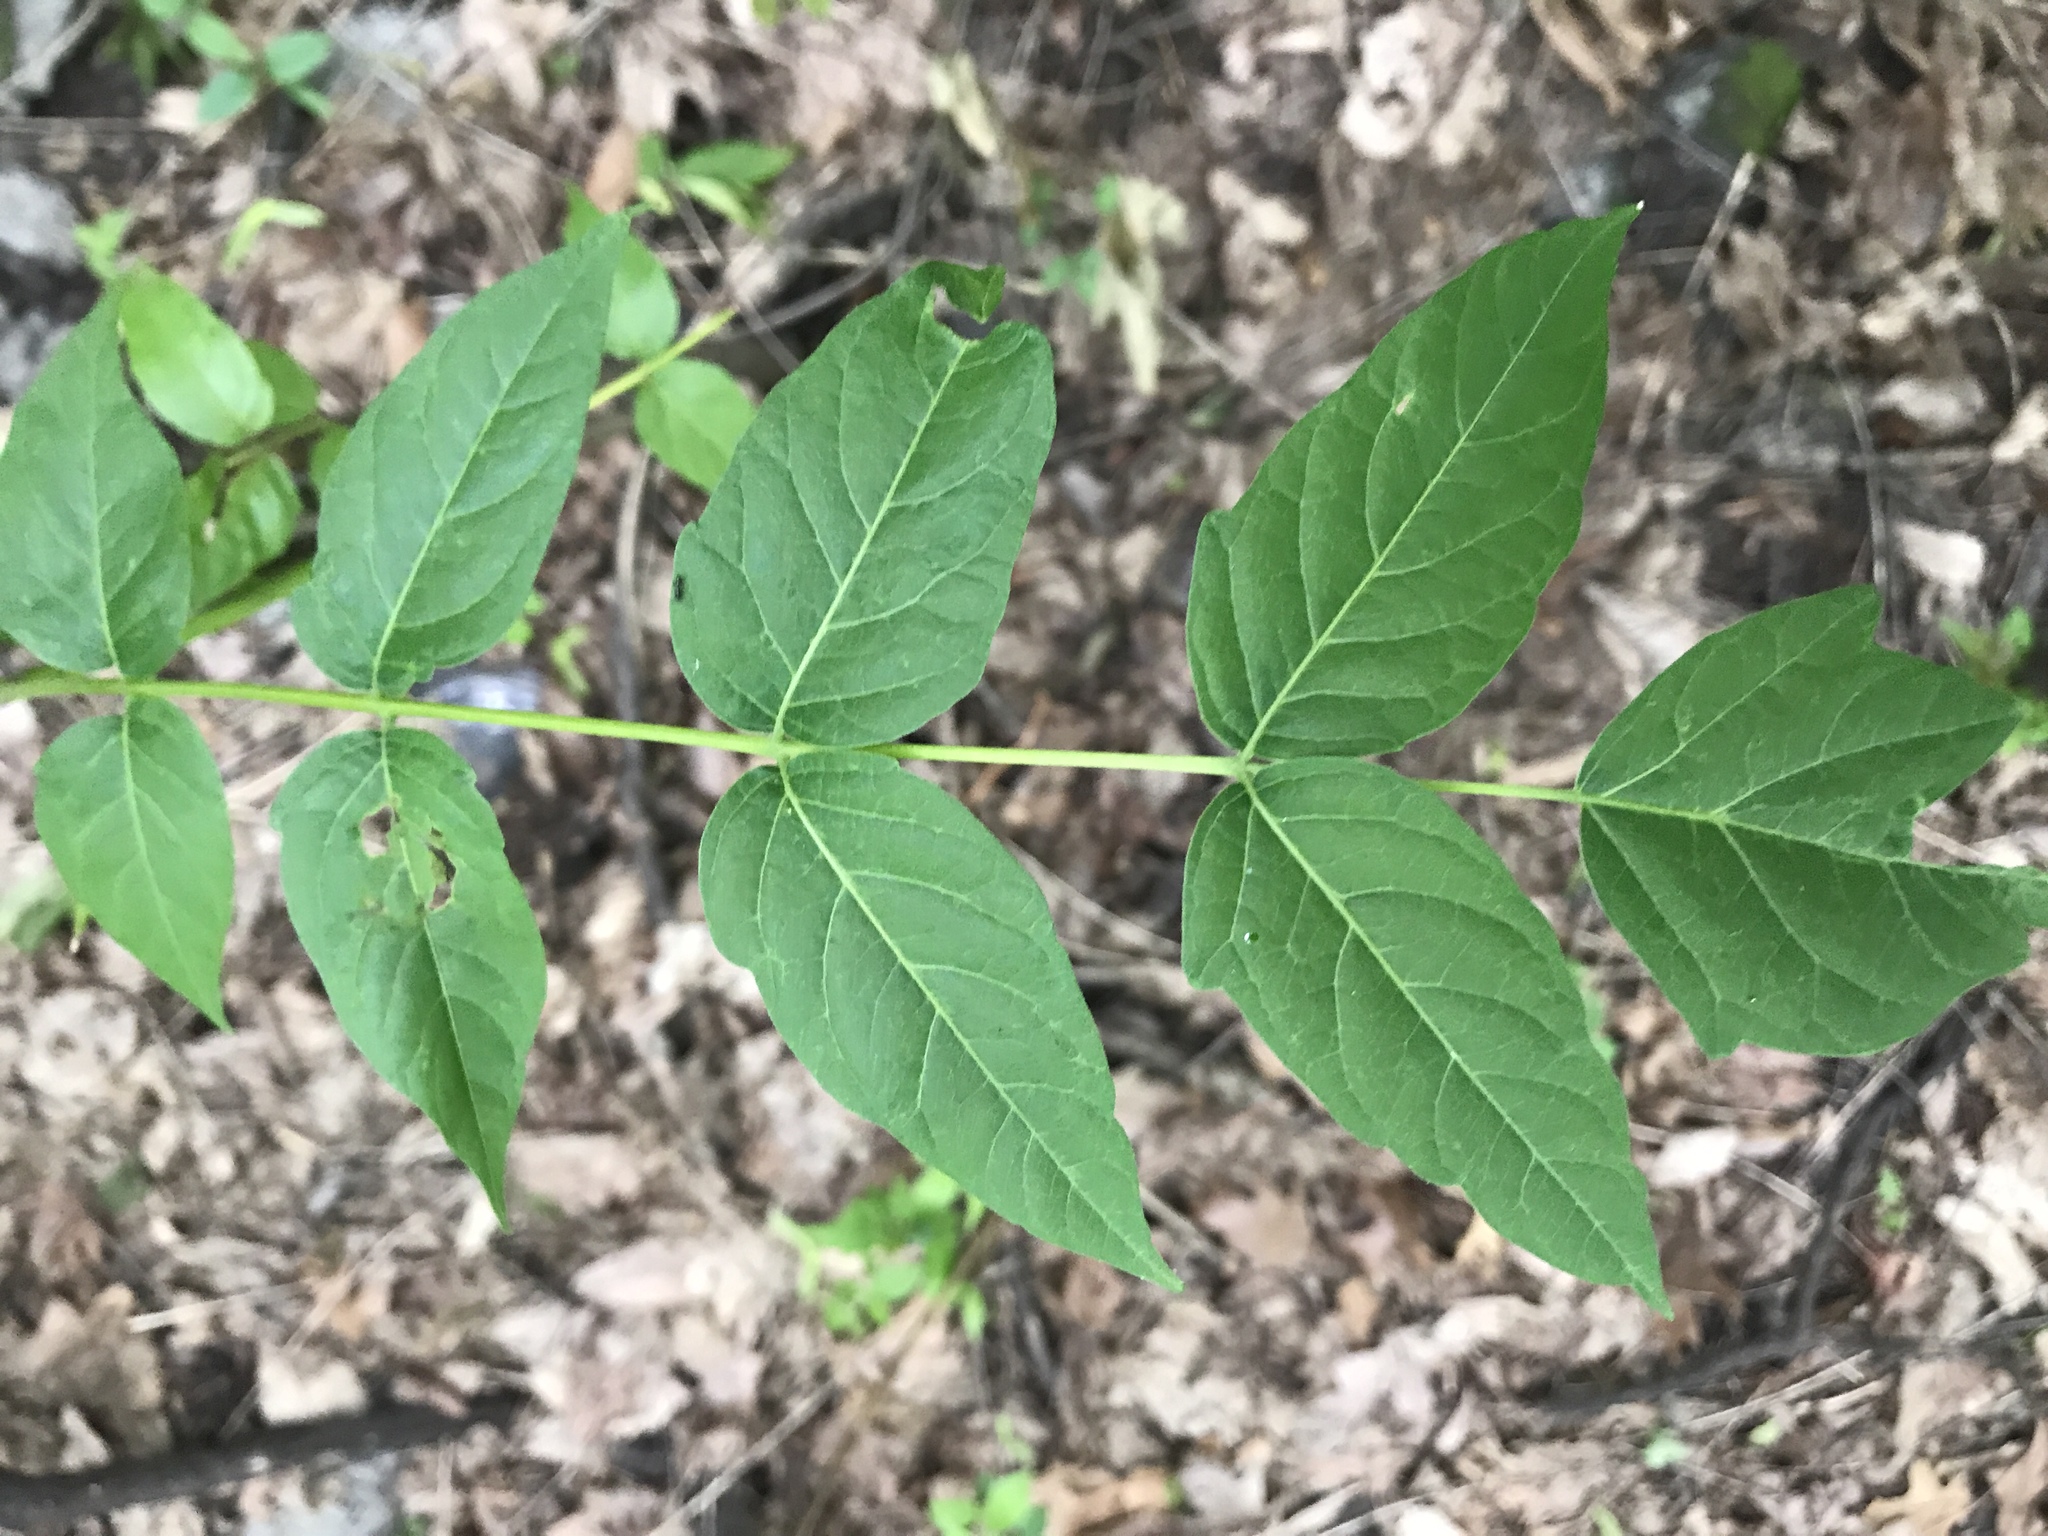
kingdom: Plantae
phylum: Tracheophyta
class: Magnoliopsida
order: Sapindales
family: Simaroubaceae
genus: Ailanthus
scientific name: Ailanthus altissima
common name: Tree-of-heaven
